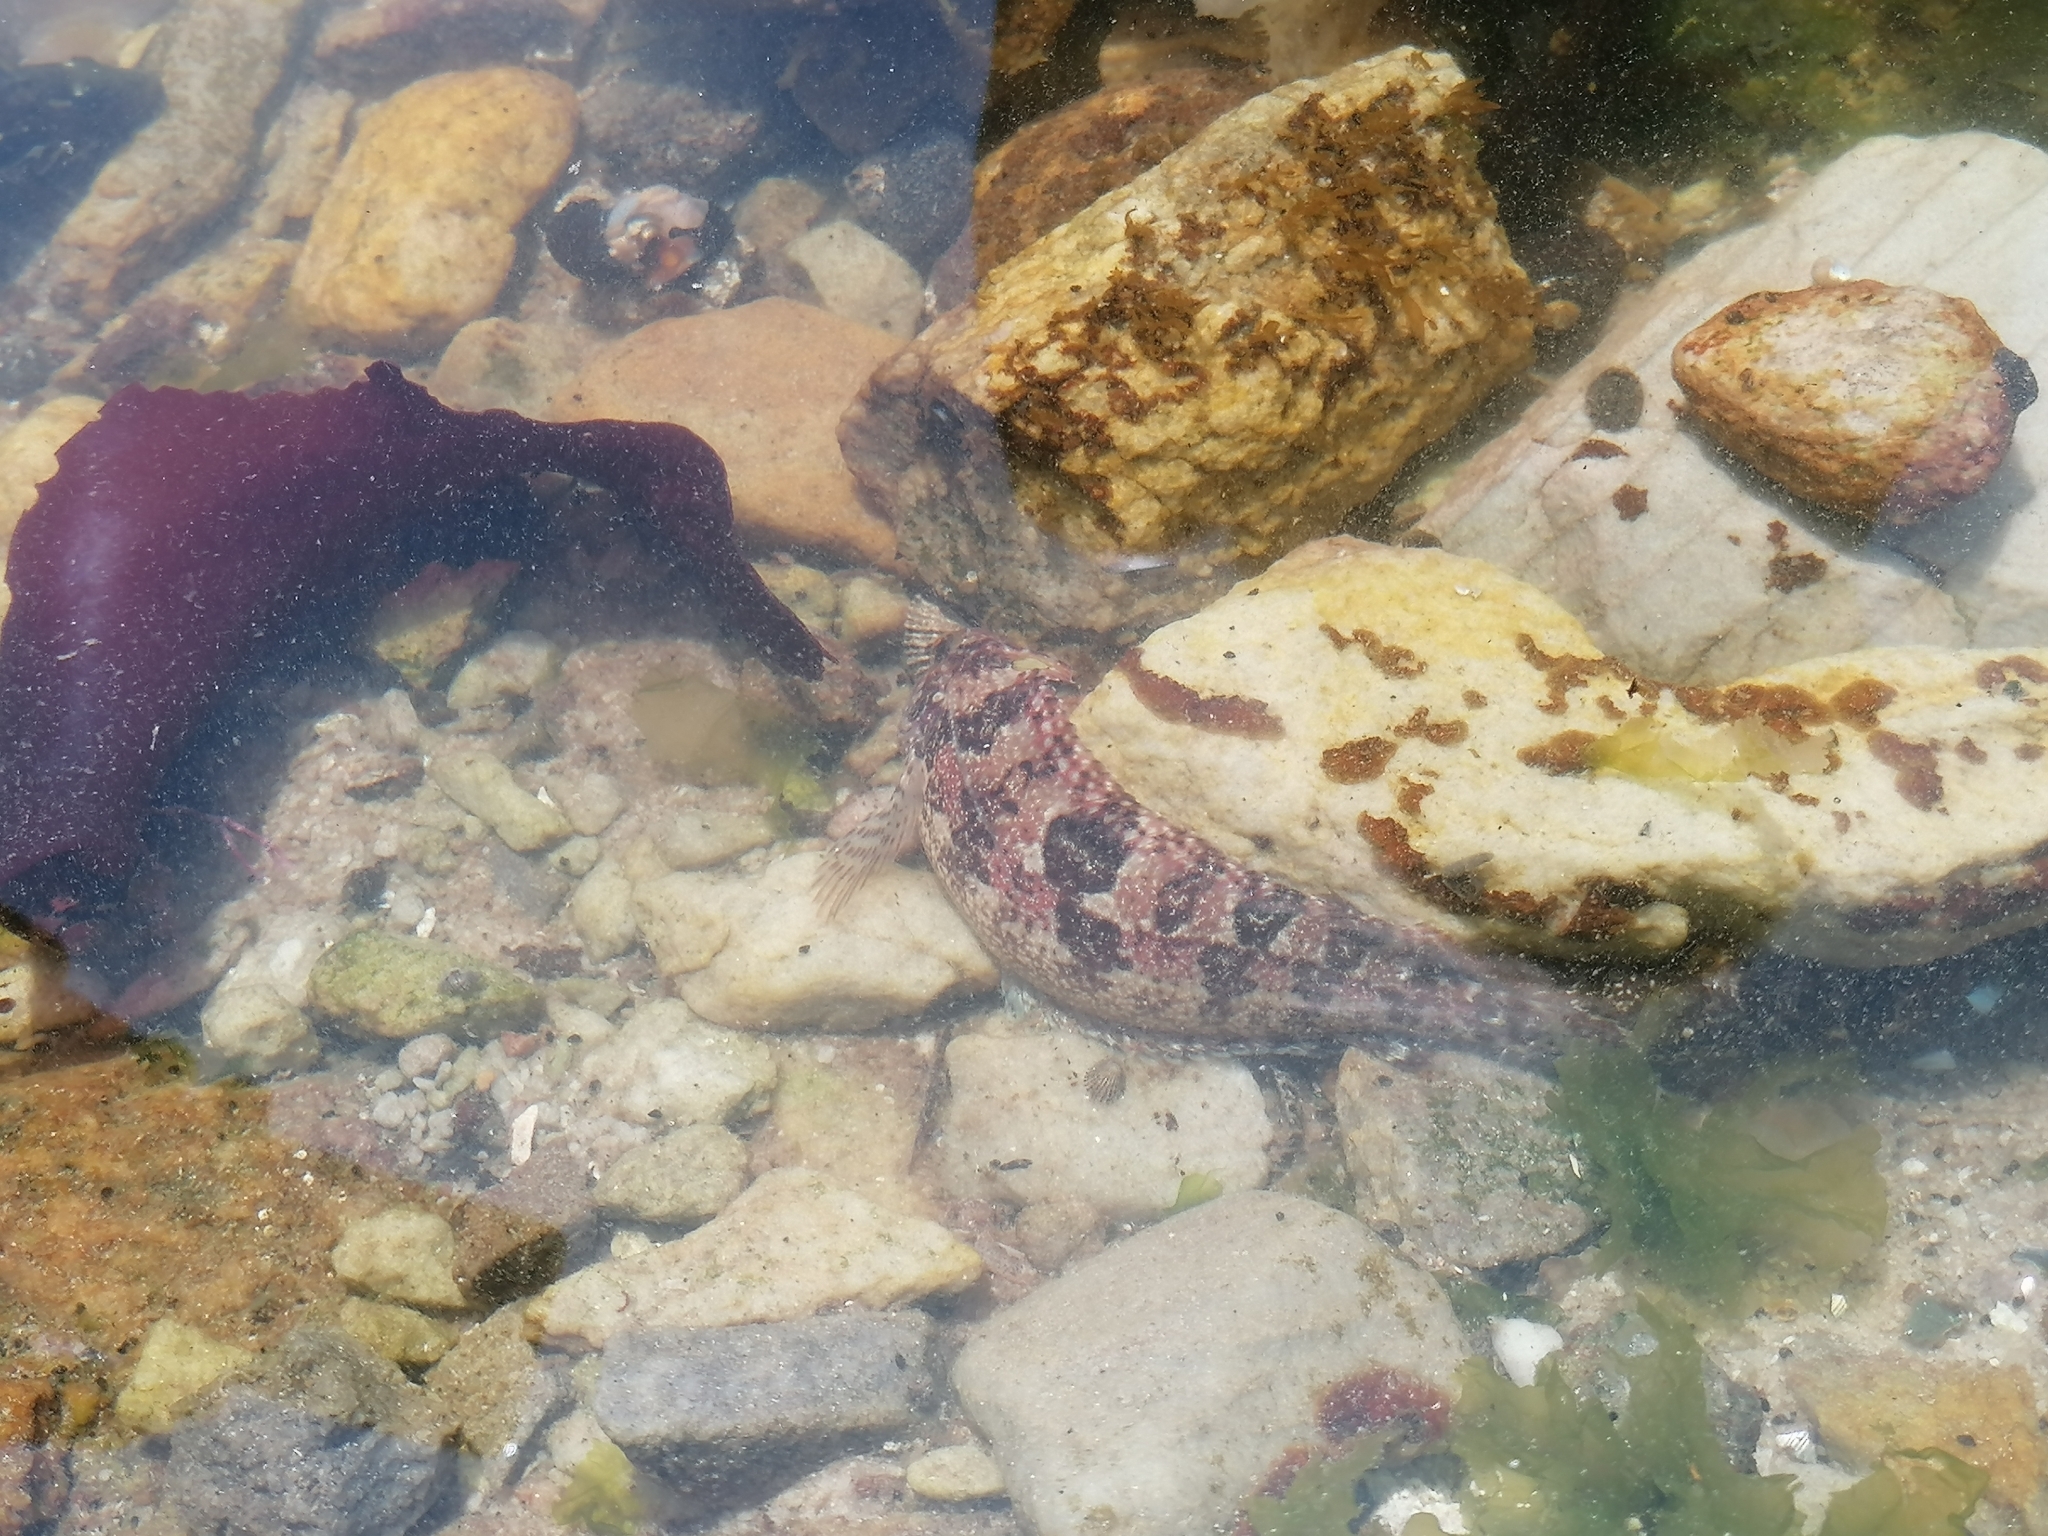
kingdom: Animalia
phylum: Chordata
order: Perciformes
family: Clinidae
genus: Clinus
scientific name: Clinus superciliosus
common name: Super klipfish
